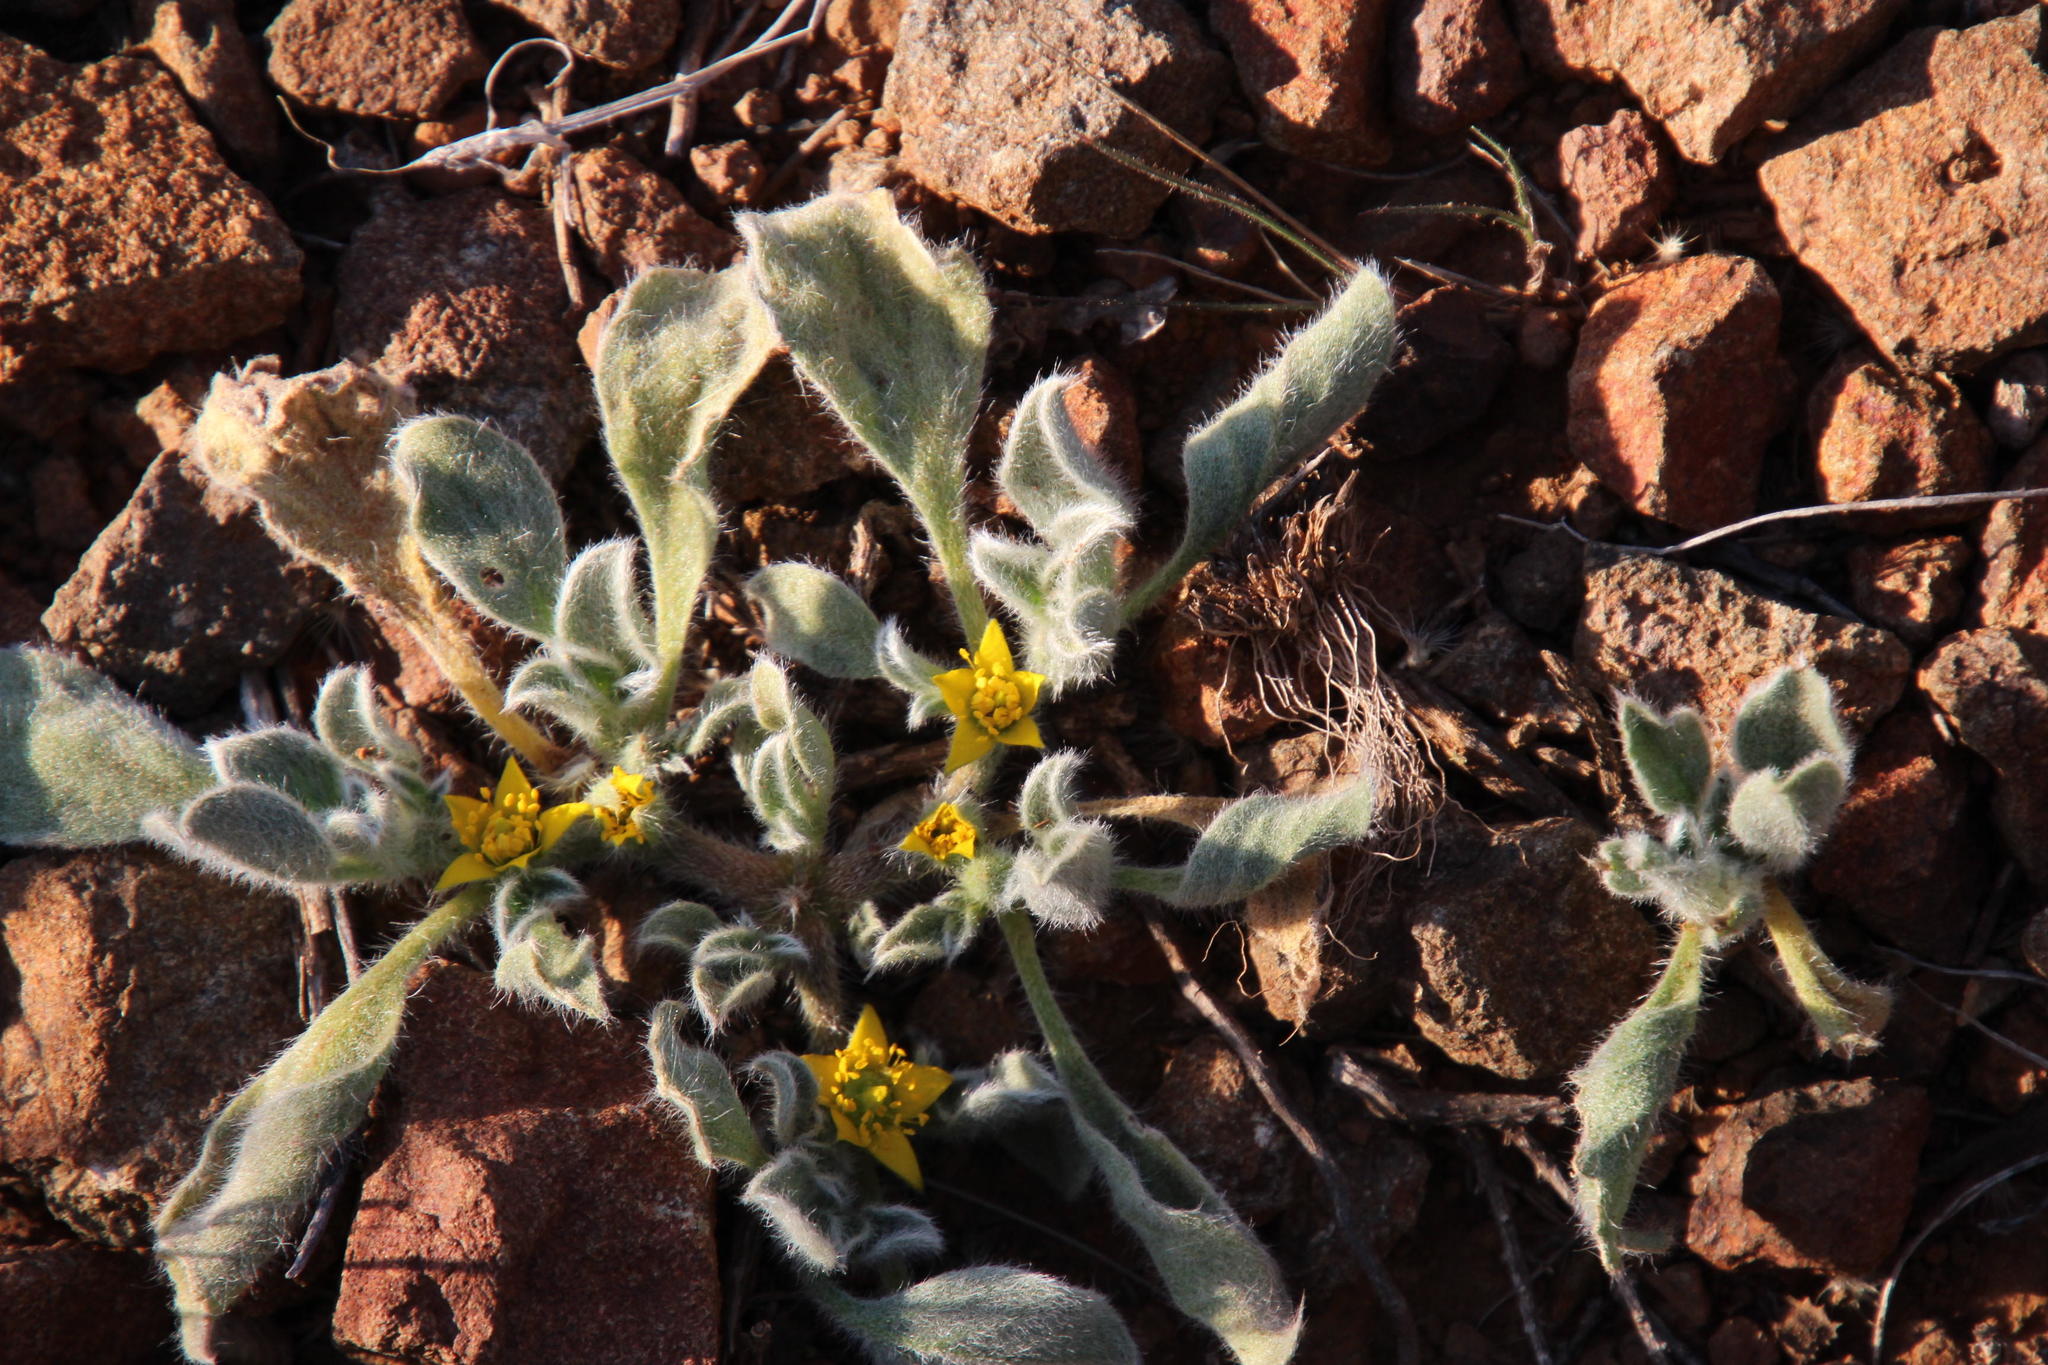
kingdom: Plantae
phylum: Tracheophyta
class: Magnoliopsida
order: Caryophyllales
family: Aizoaceae
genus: Aizoon
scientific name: Aizoon glinoides
